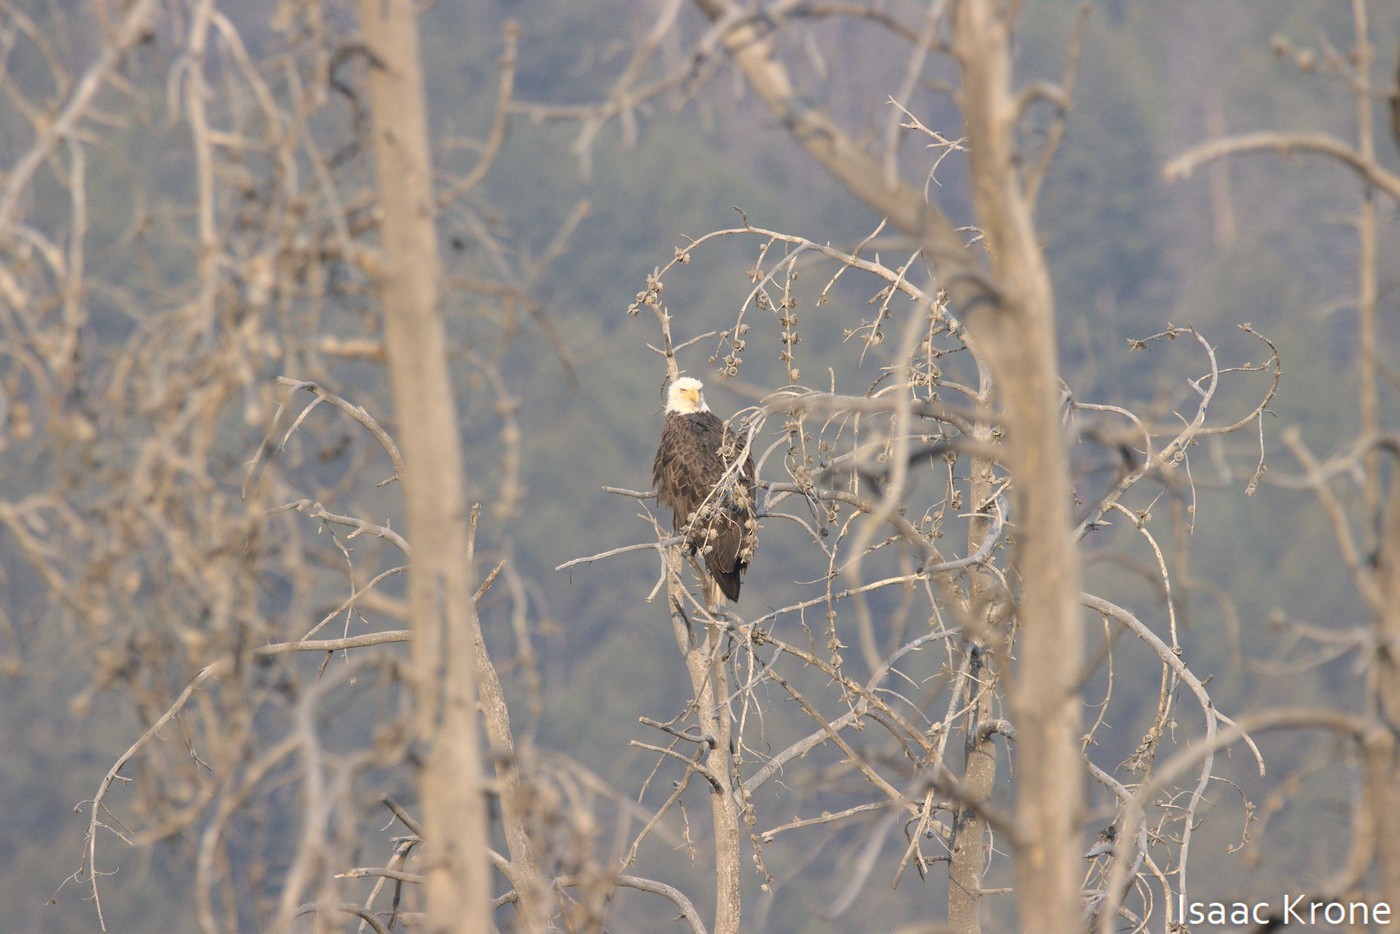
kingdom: Animalia
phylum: Chordata
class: Aves
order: Accipitriformes
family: Accipitridae
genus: Haliaeetus
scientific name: Haliaeetus leucocephalus
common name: Bald eagle
